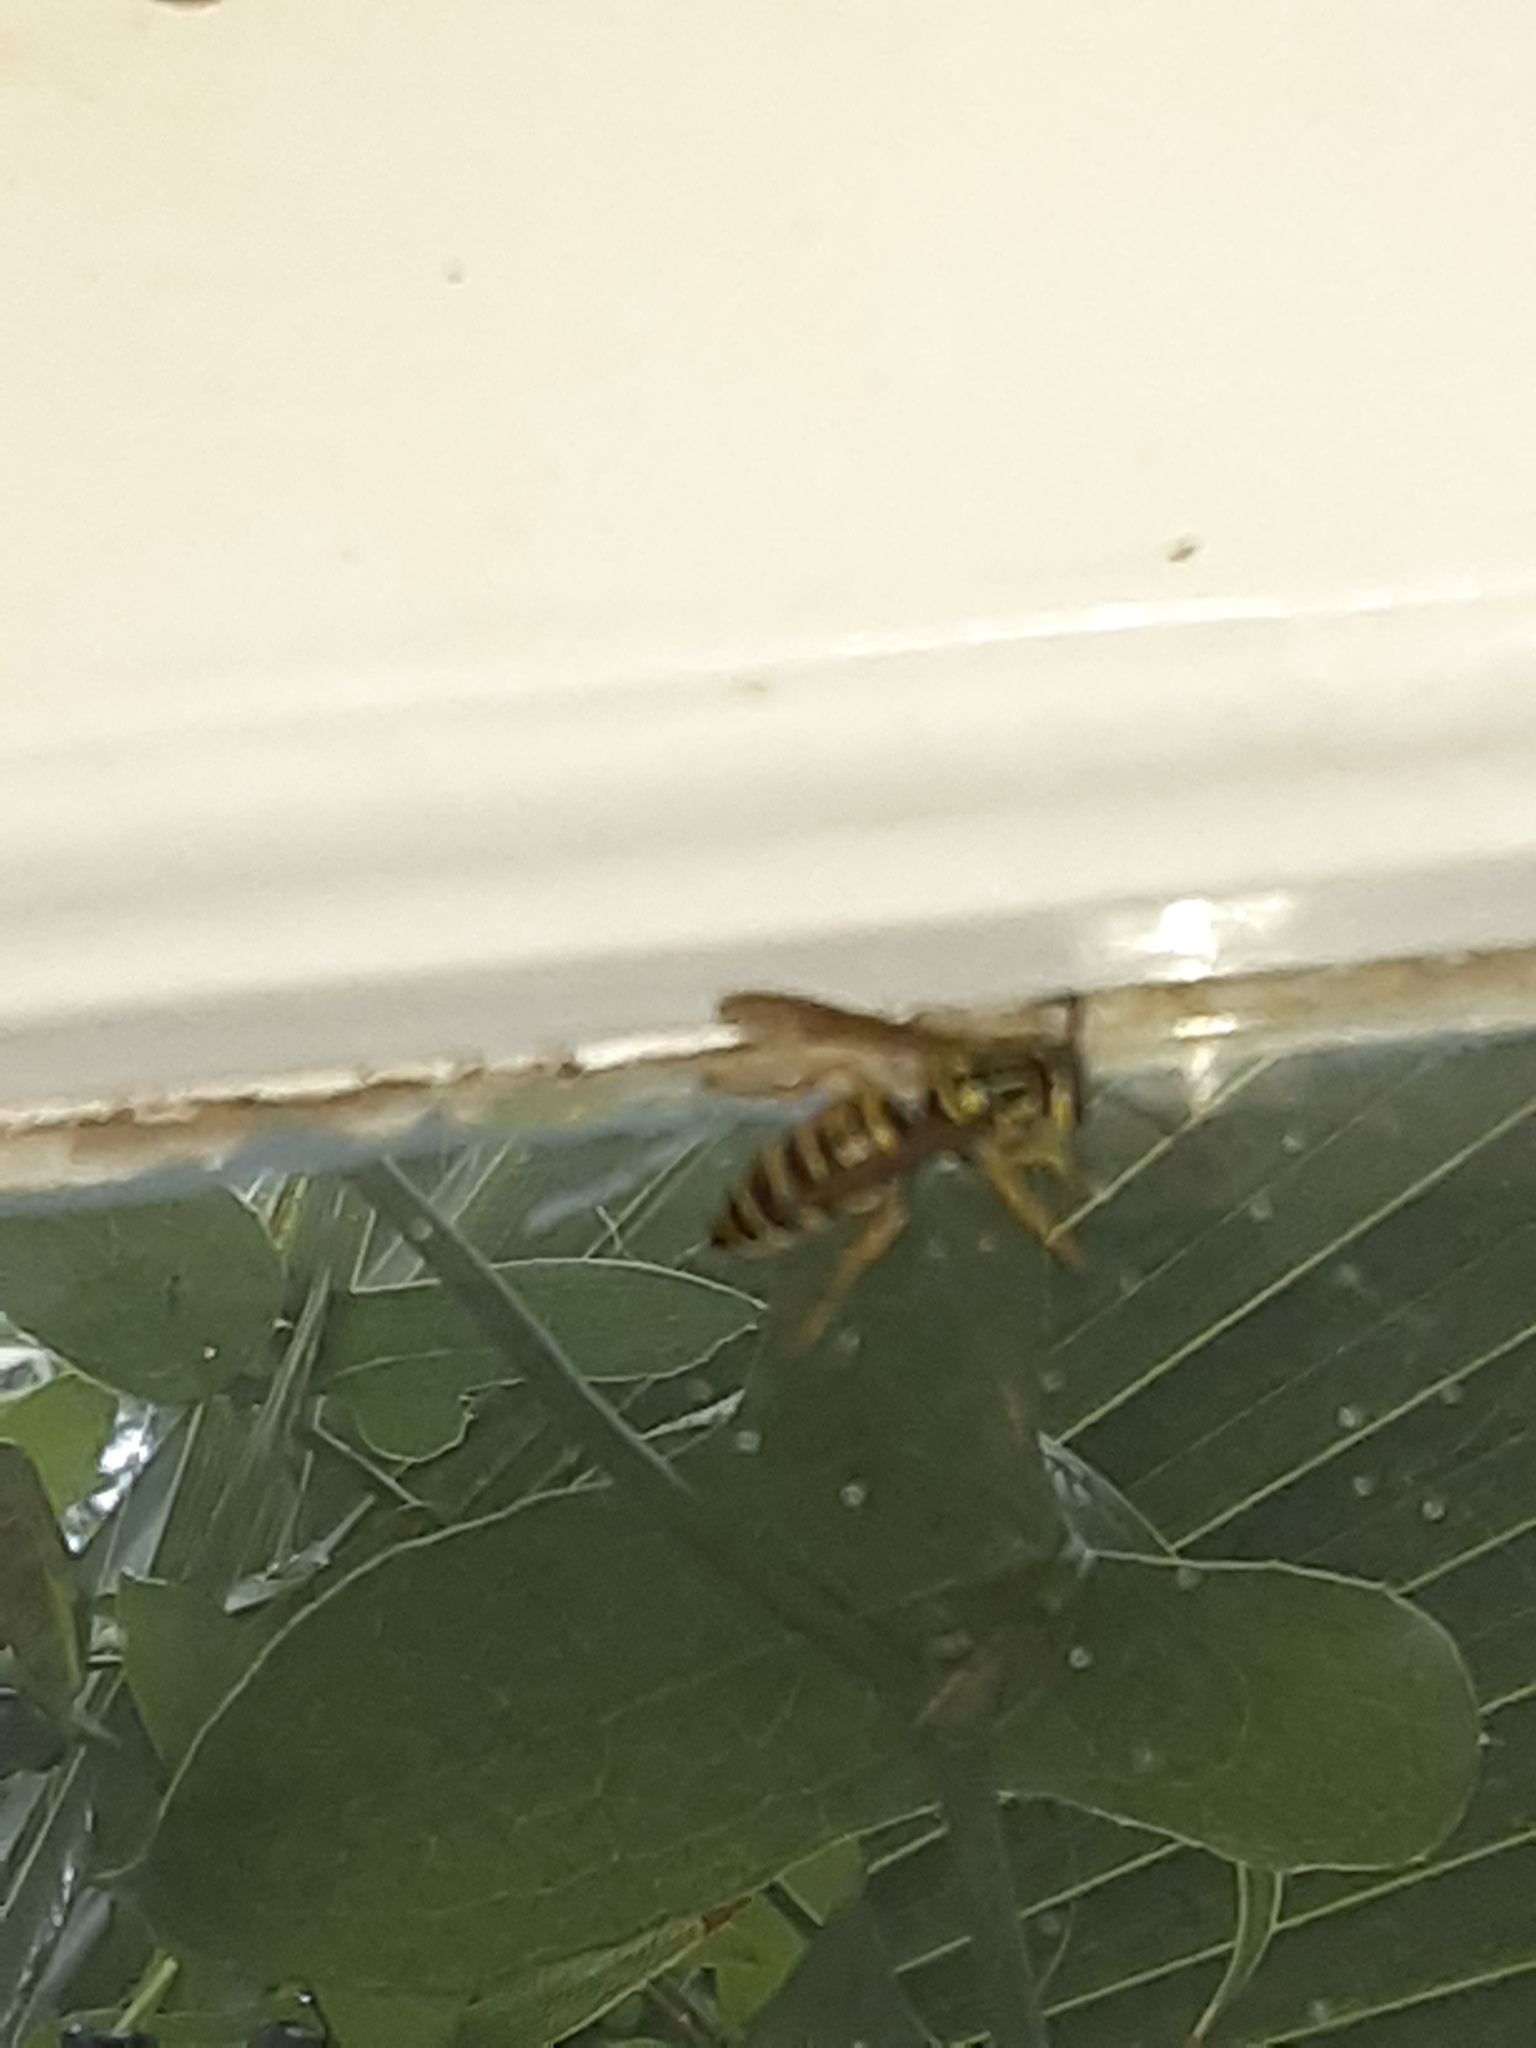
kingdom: Animalia
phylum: Arthropoda
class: Insecta
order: Hymenoptera
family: Vespidae
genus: Vespula
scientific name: Vespula squamosa
